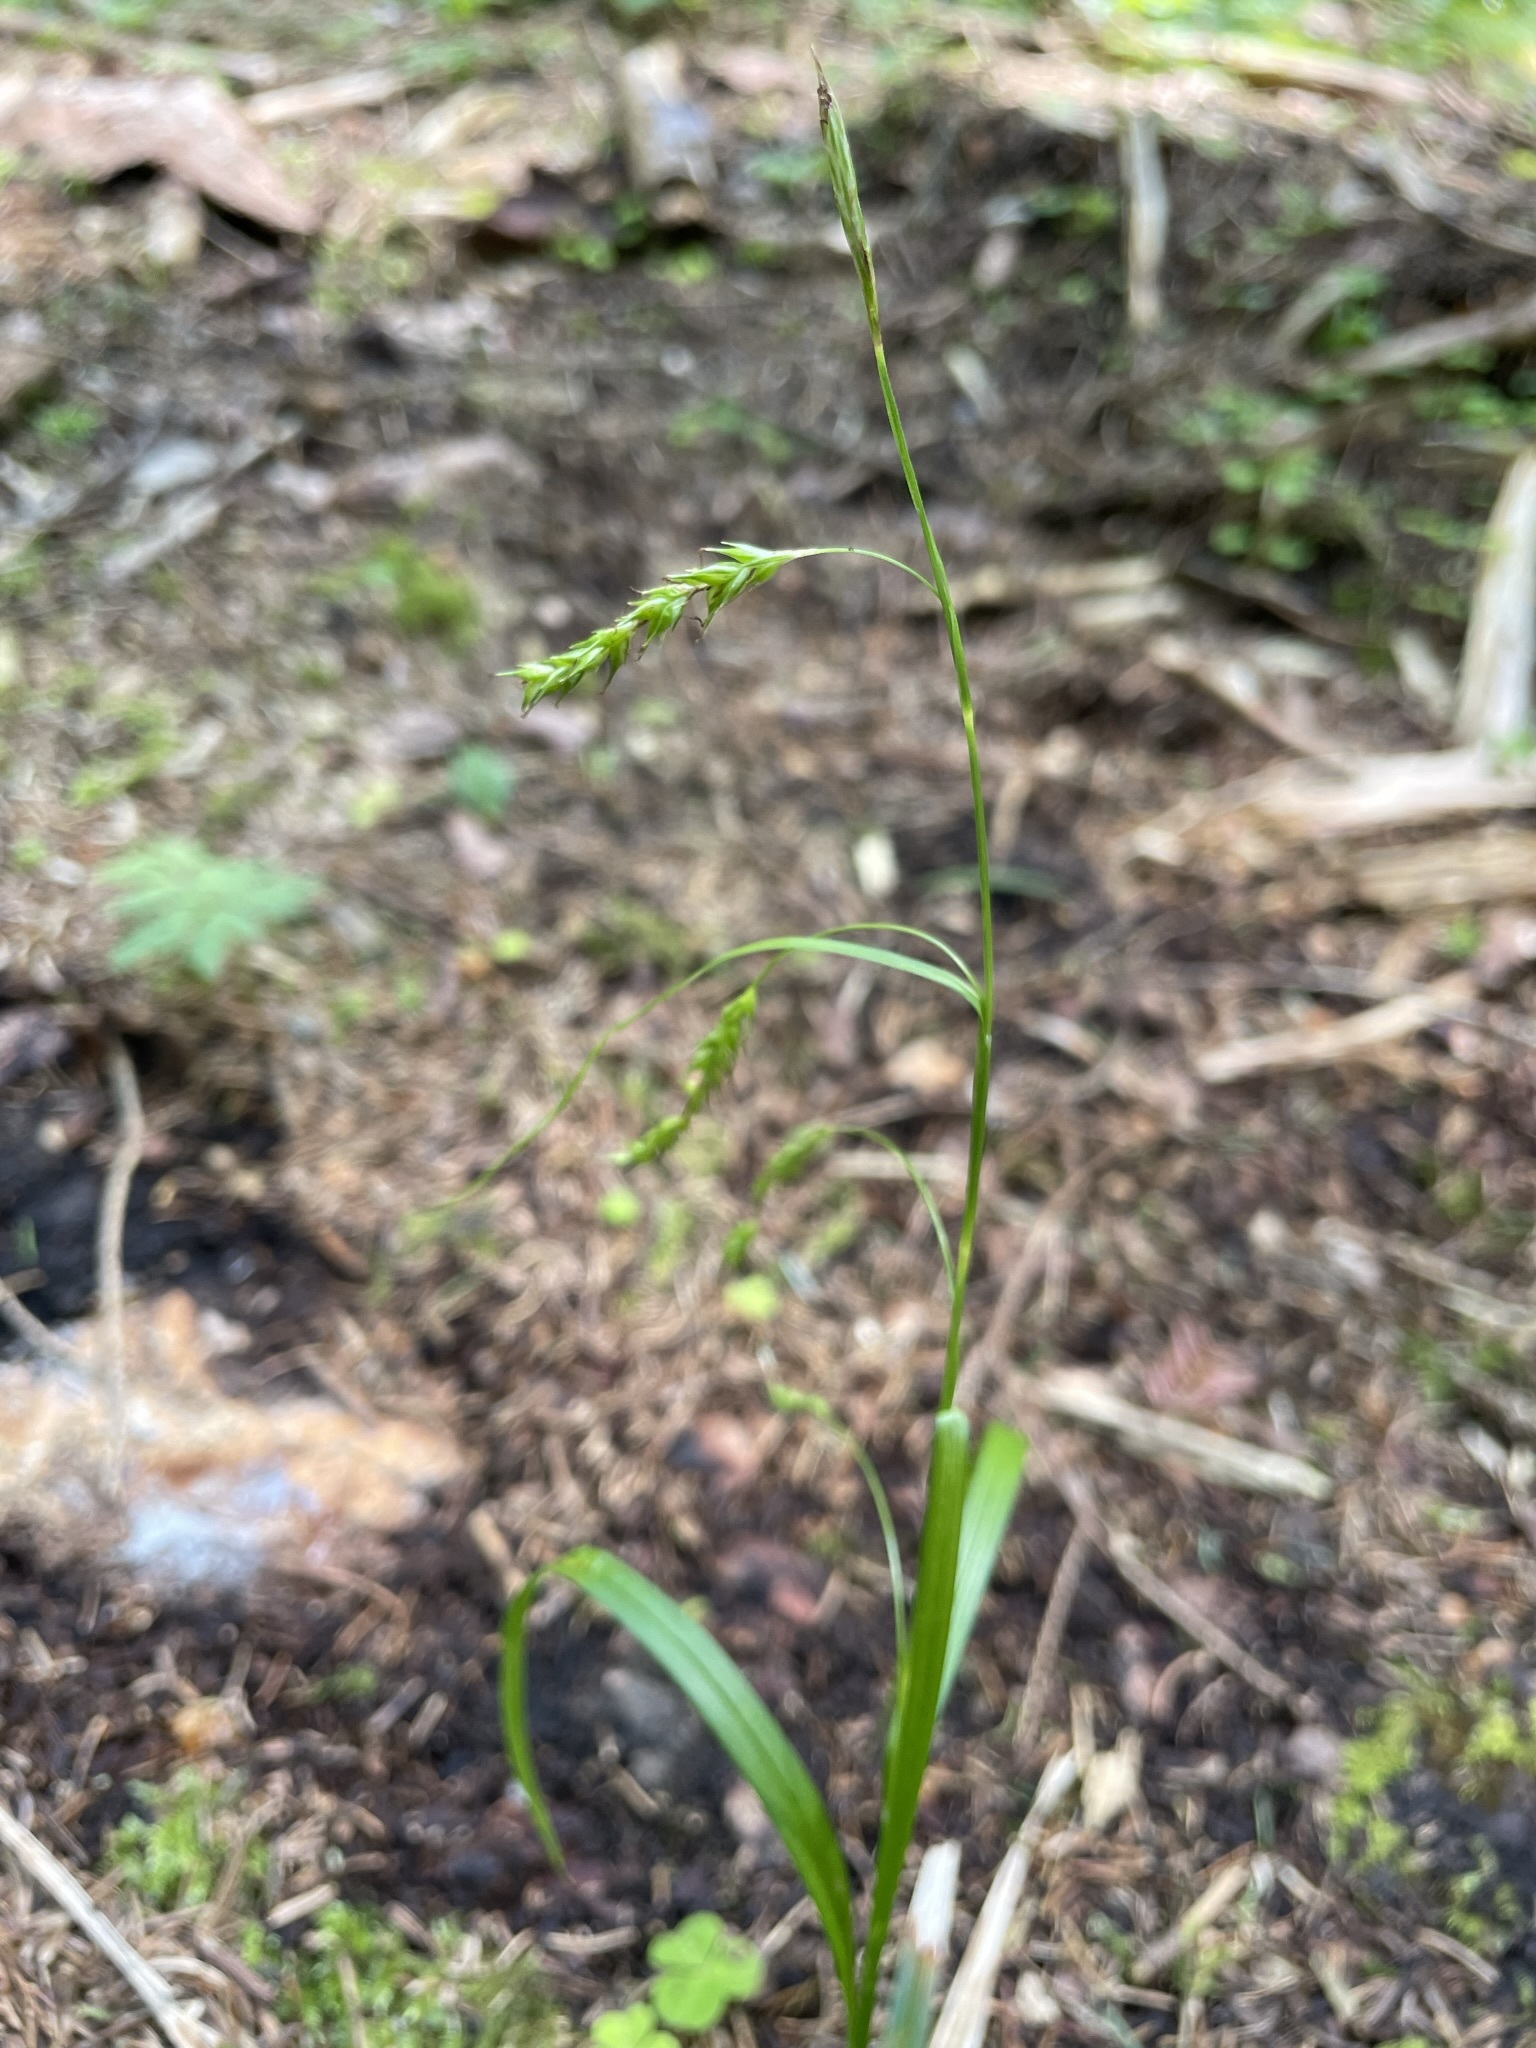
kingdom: Plantae
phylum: Tracheophyta
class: Liliopsida
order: Poales
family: Cyperaceae
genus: Carex
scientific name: Carex sylvatica
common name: Wood-sedge
